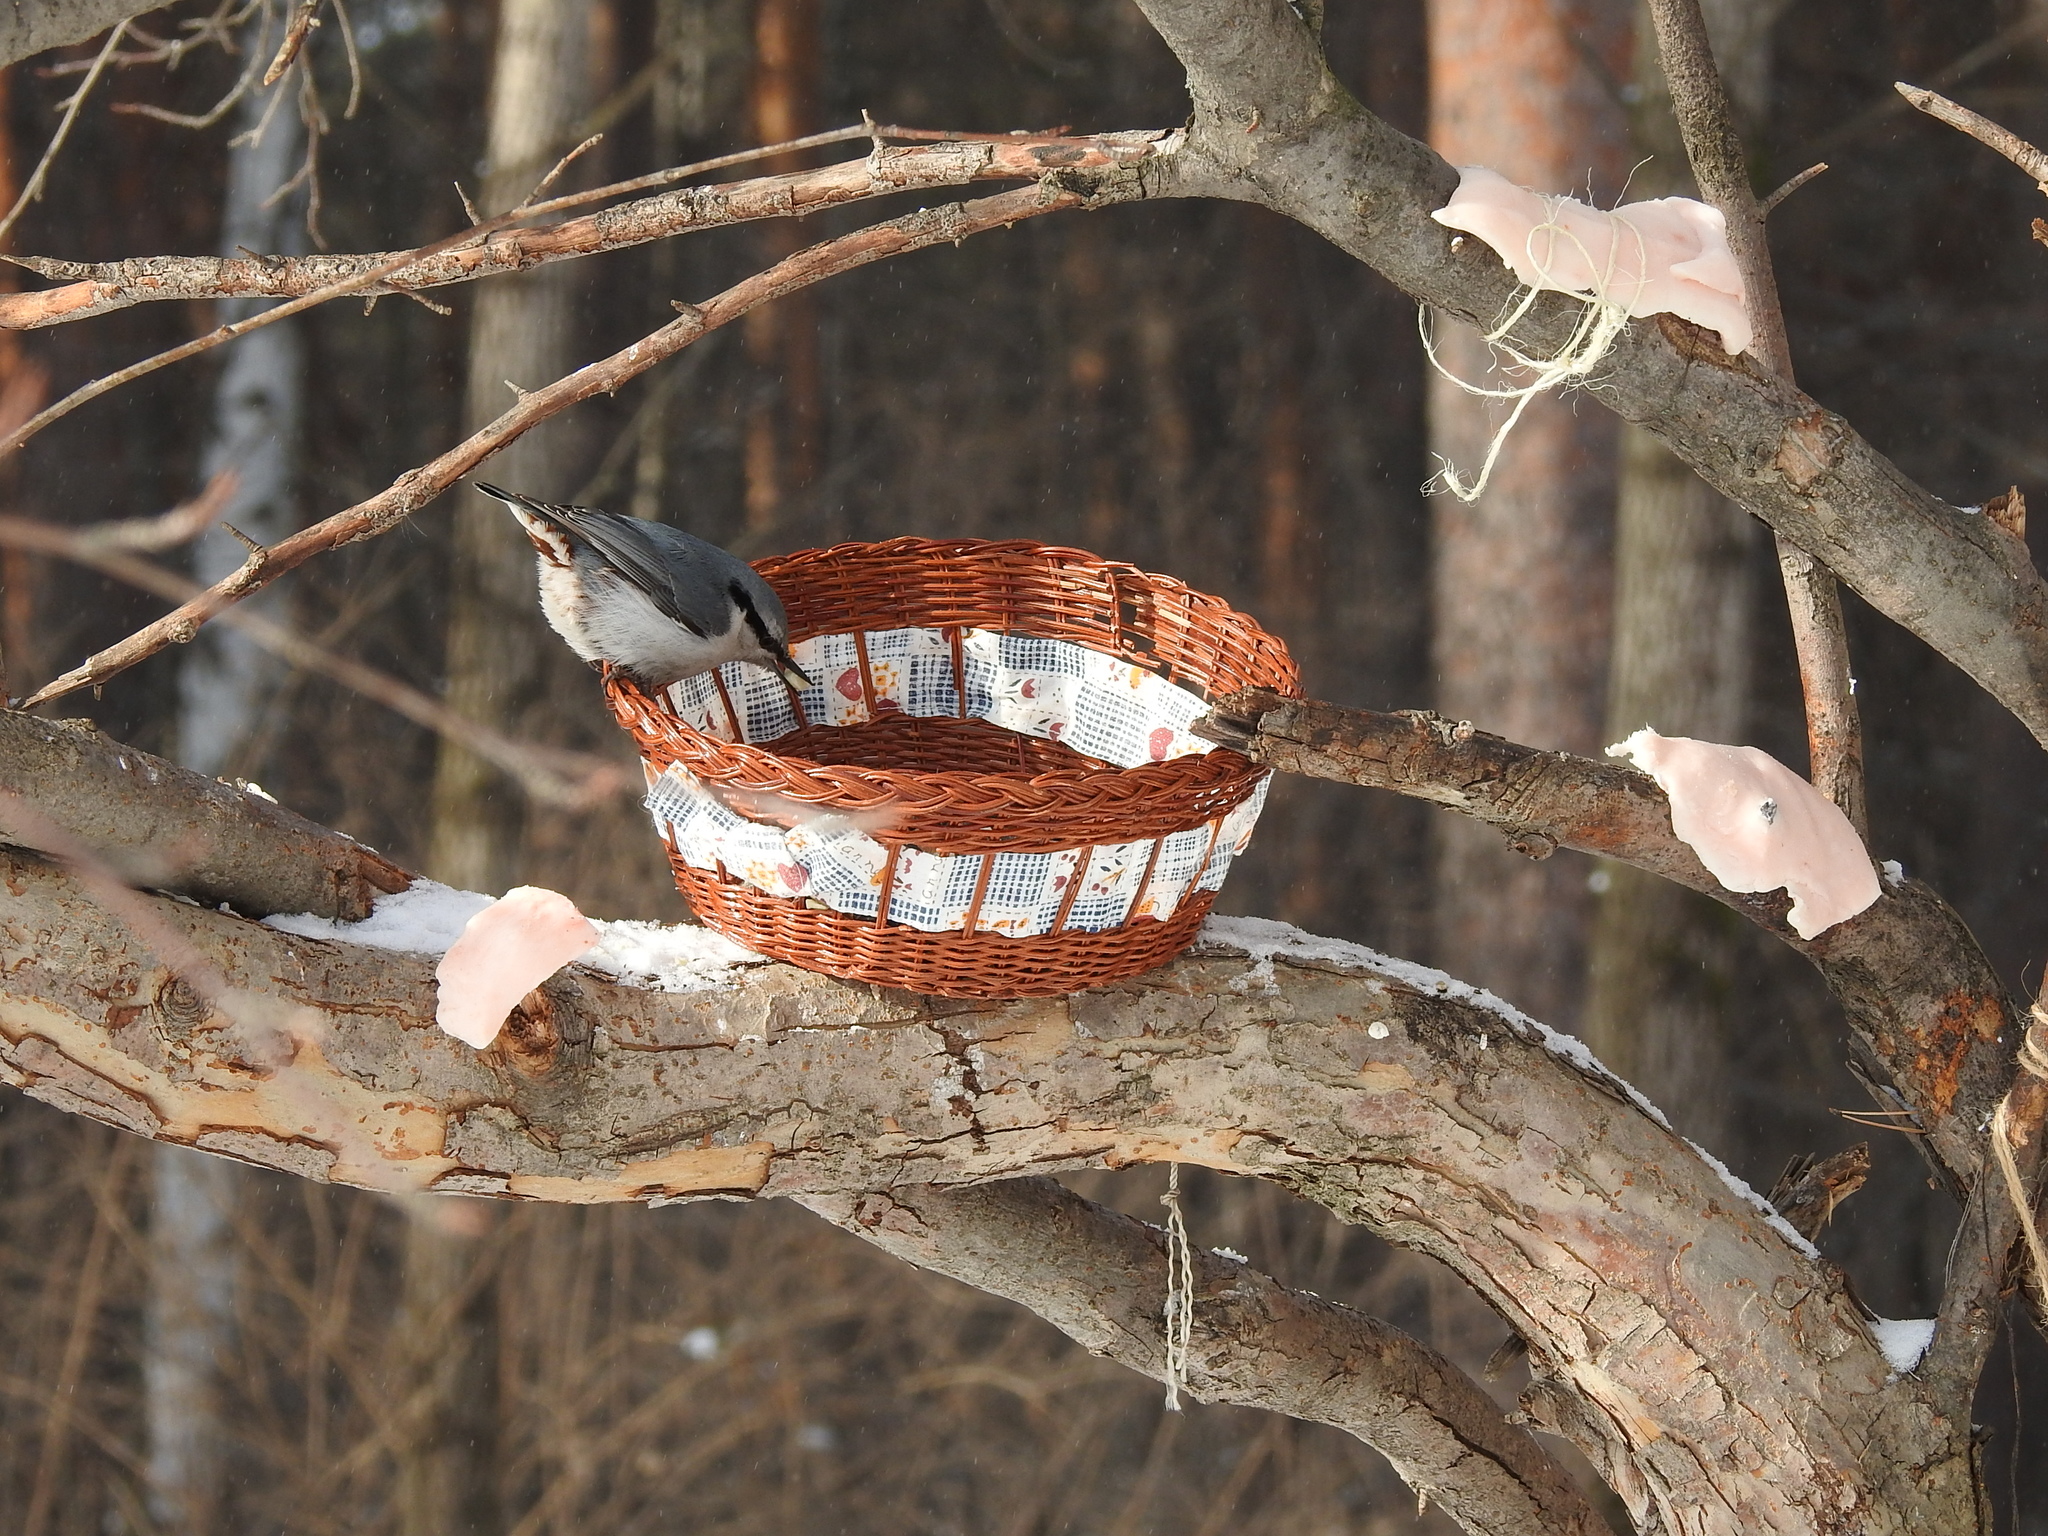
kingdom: Animalia
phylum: Chordata
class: Aves
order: Passeriformes
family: Sittidae
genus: Sitta
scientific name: Sitta europaea
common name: Eurasian nuthatch
